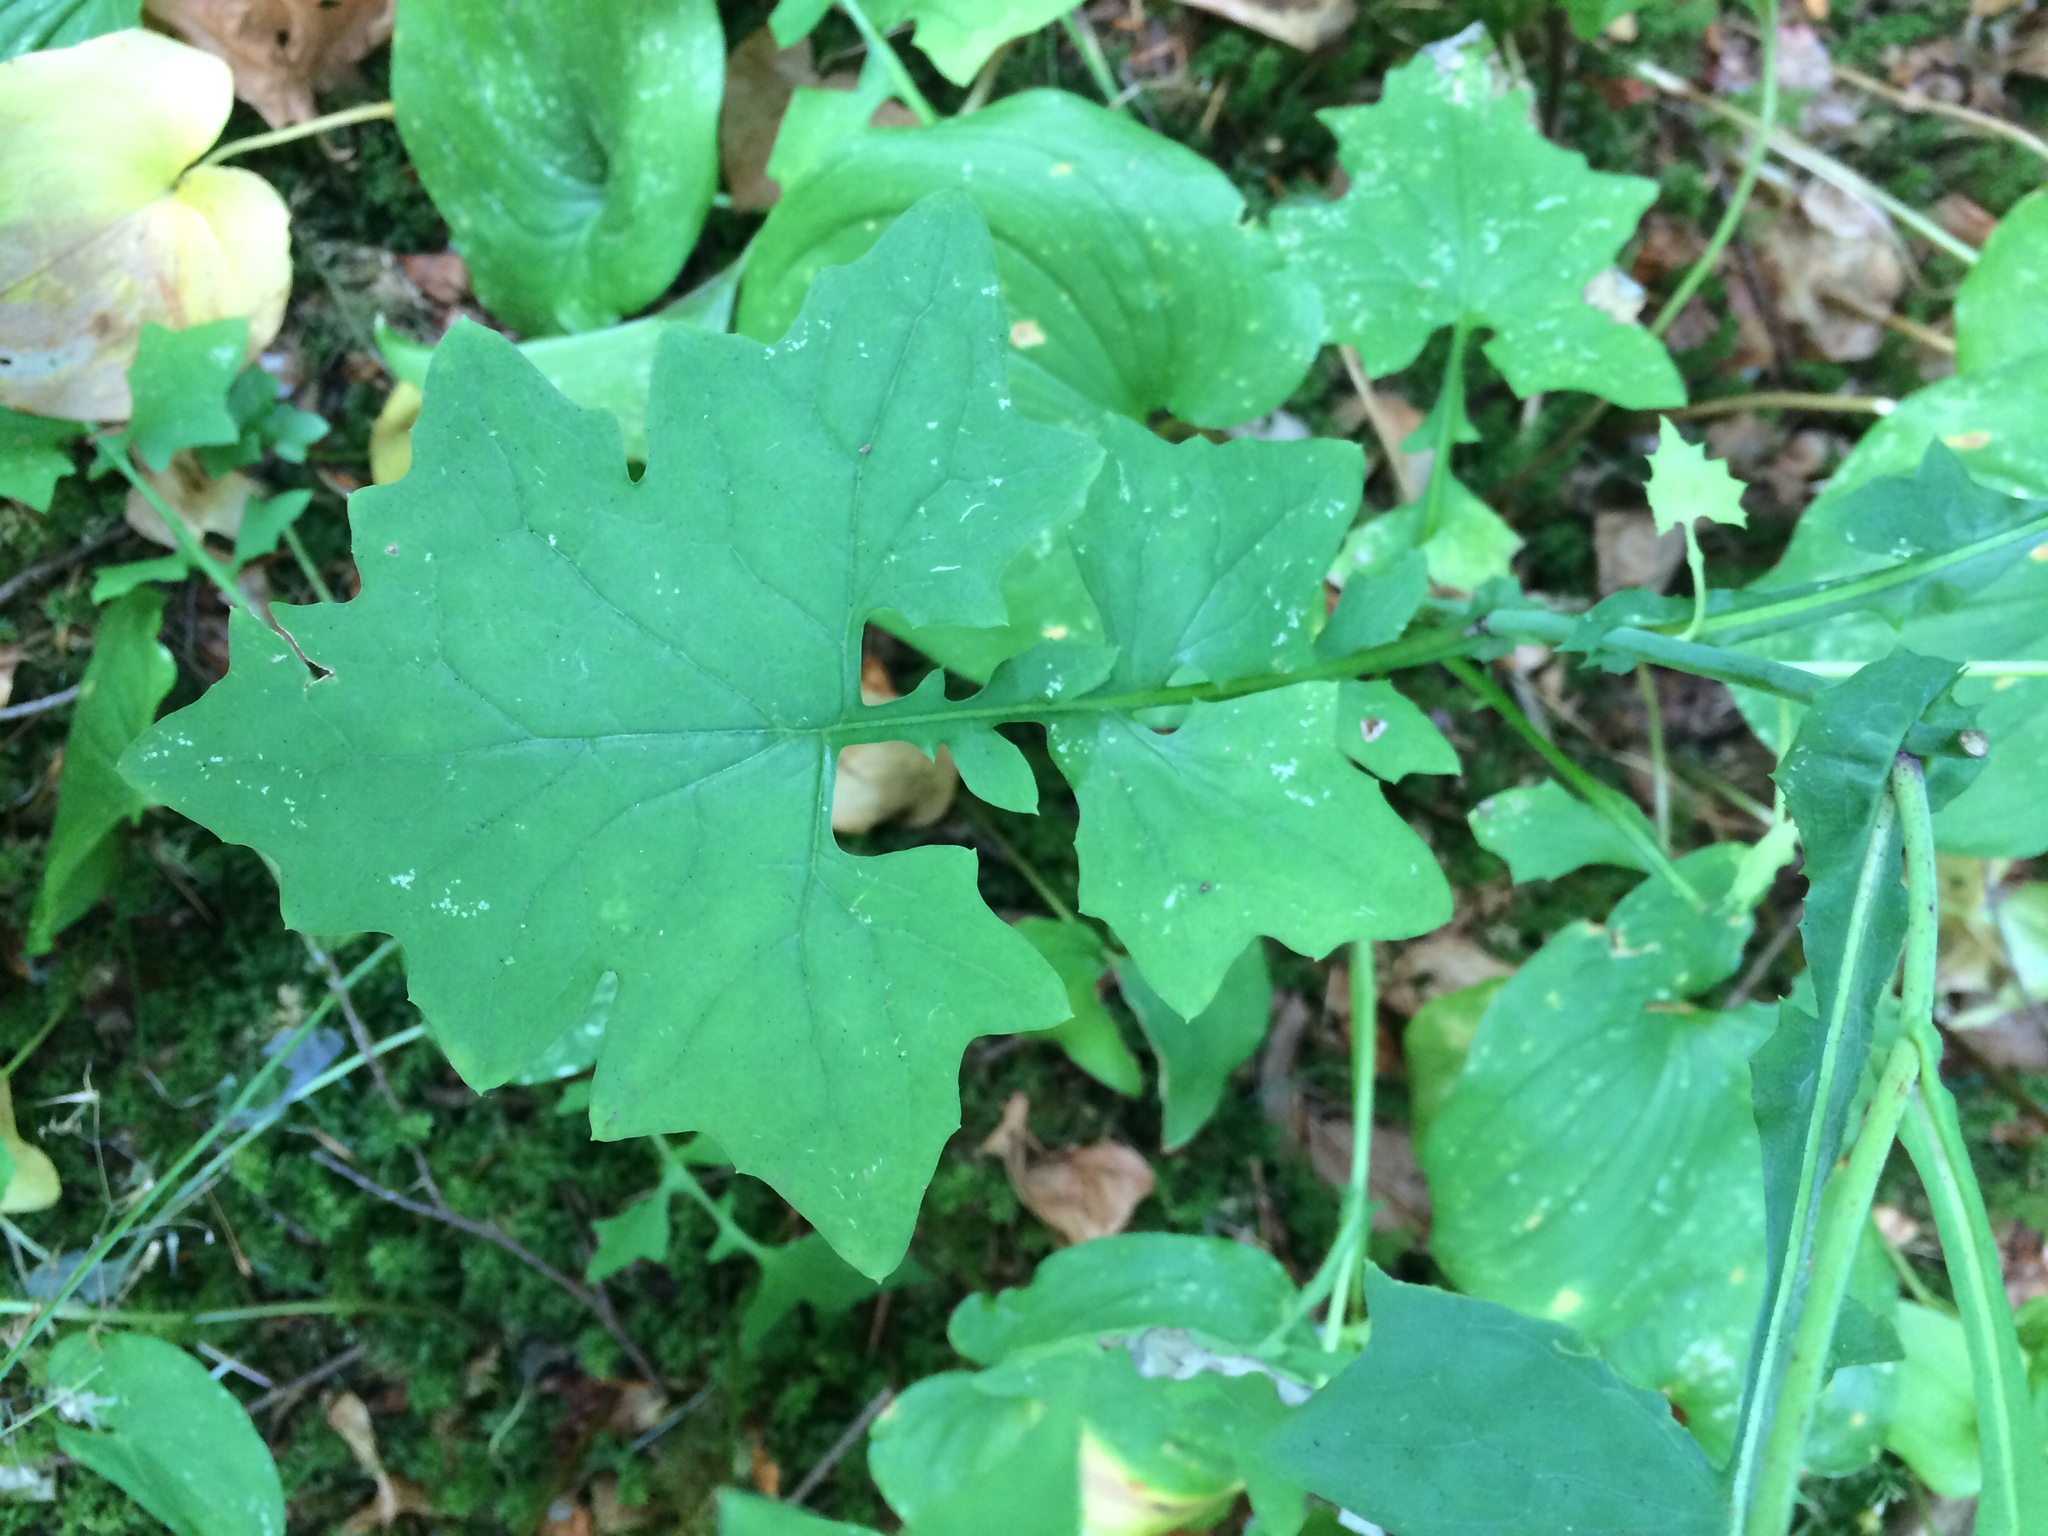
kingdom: Plantae
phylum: Tracheophyta
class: Magnoliopsida
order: Asterales
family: Asteraceae
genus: Mycelis
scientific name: Mycelis muralis
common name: Wall lettuce
